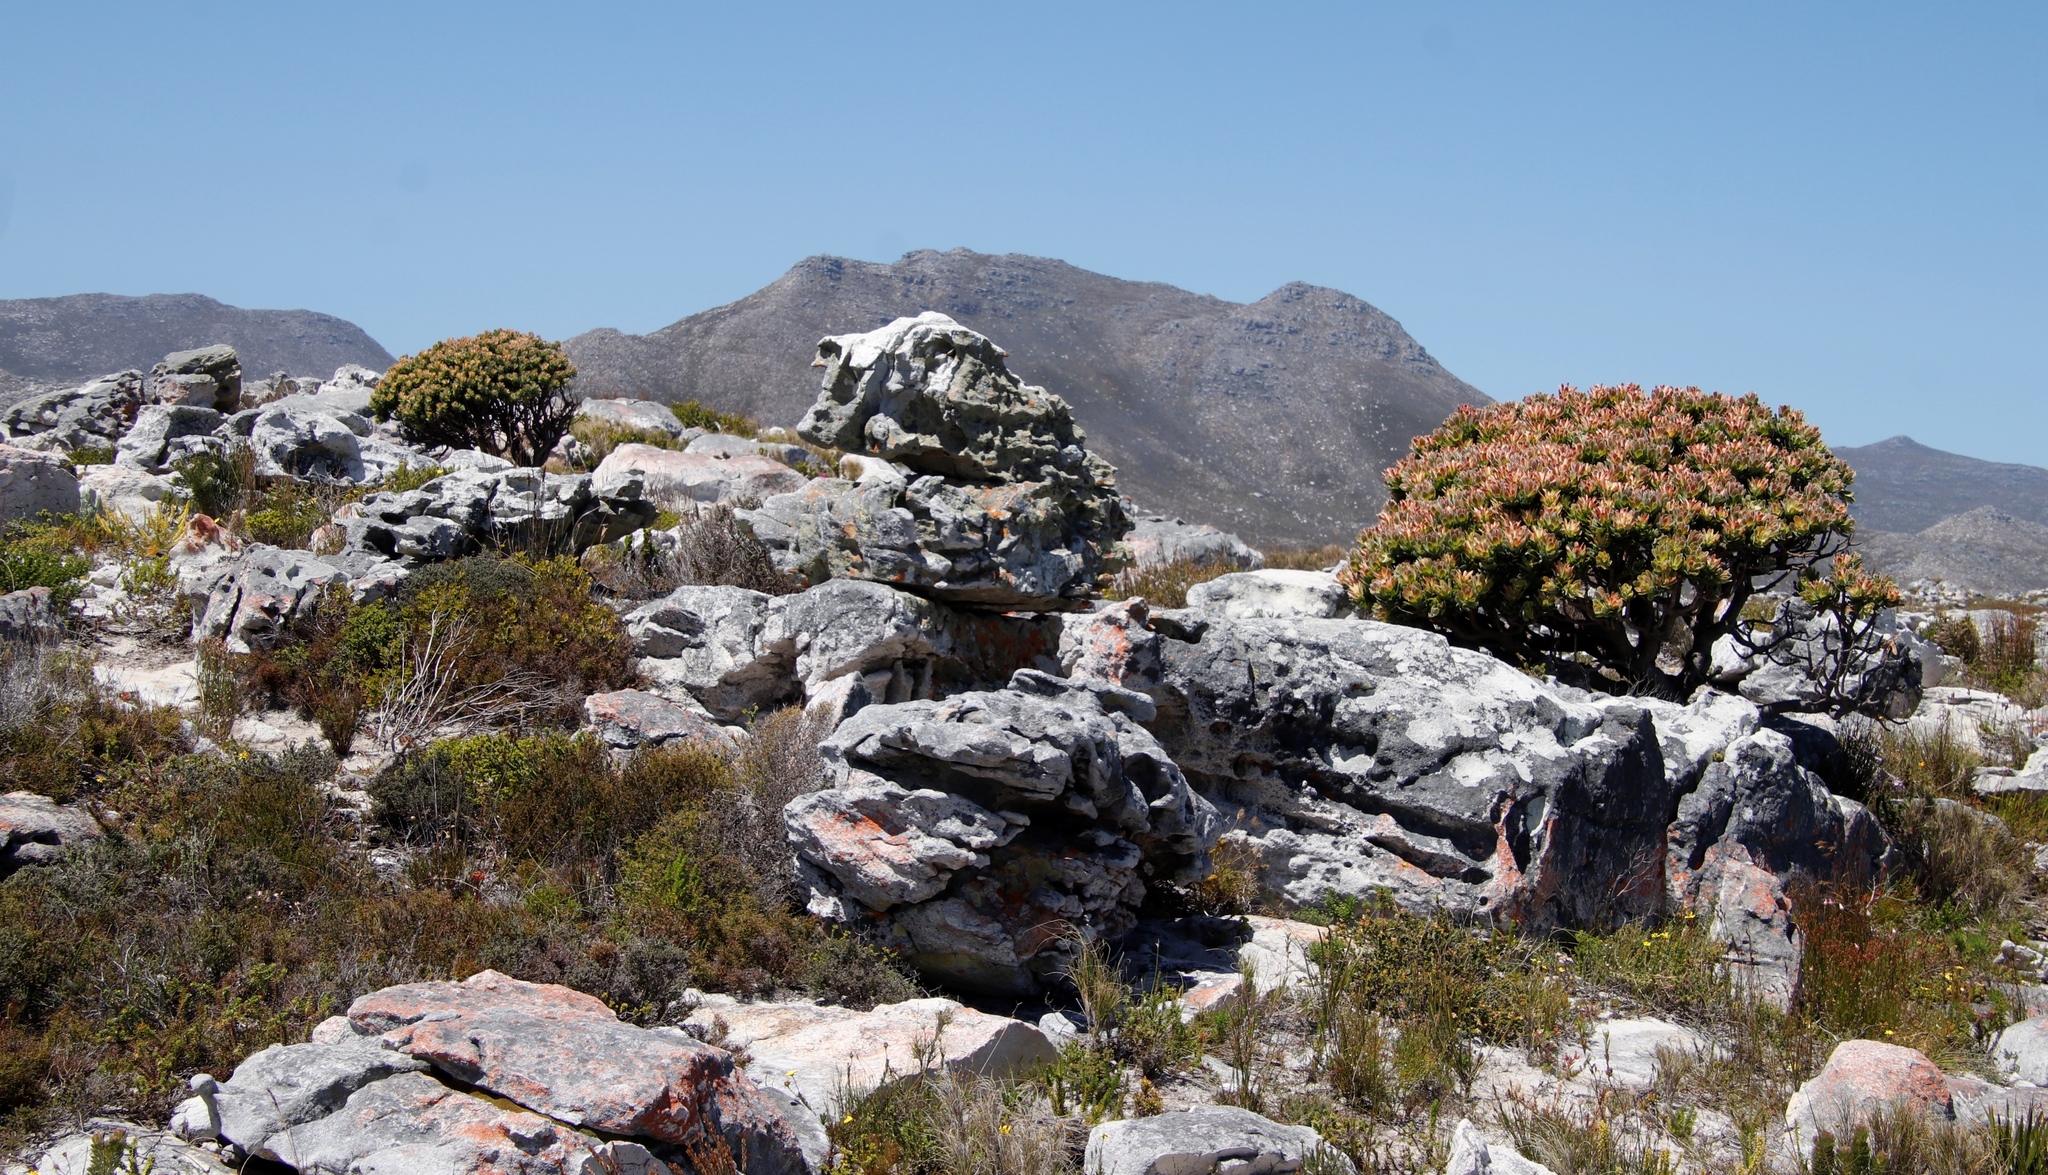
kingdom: Plantae
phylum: Tracheophyta
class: Magnoliopsida
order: Proteales
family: Proteaceae
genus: Mimetes
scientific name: Mimetes fimbriifolius
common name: Fringed bottlebrush
